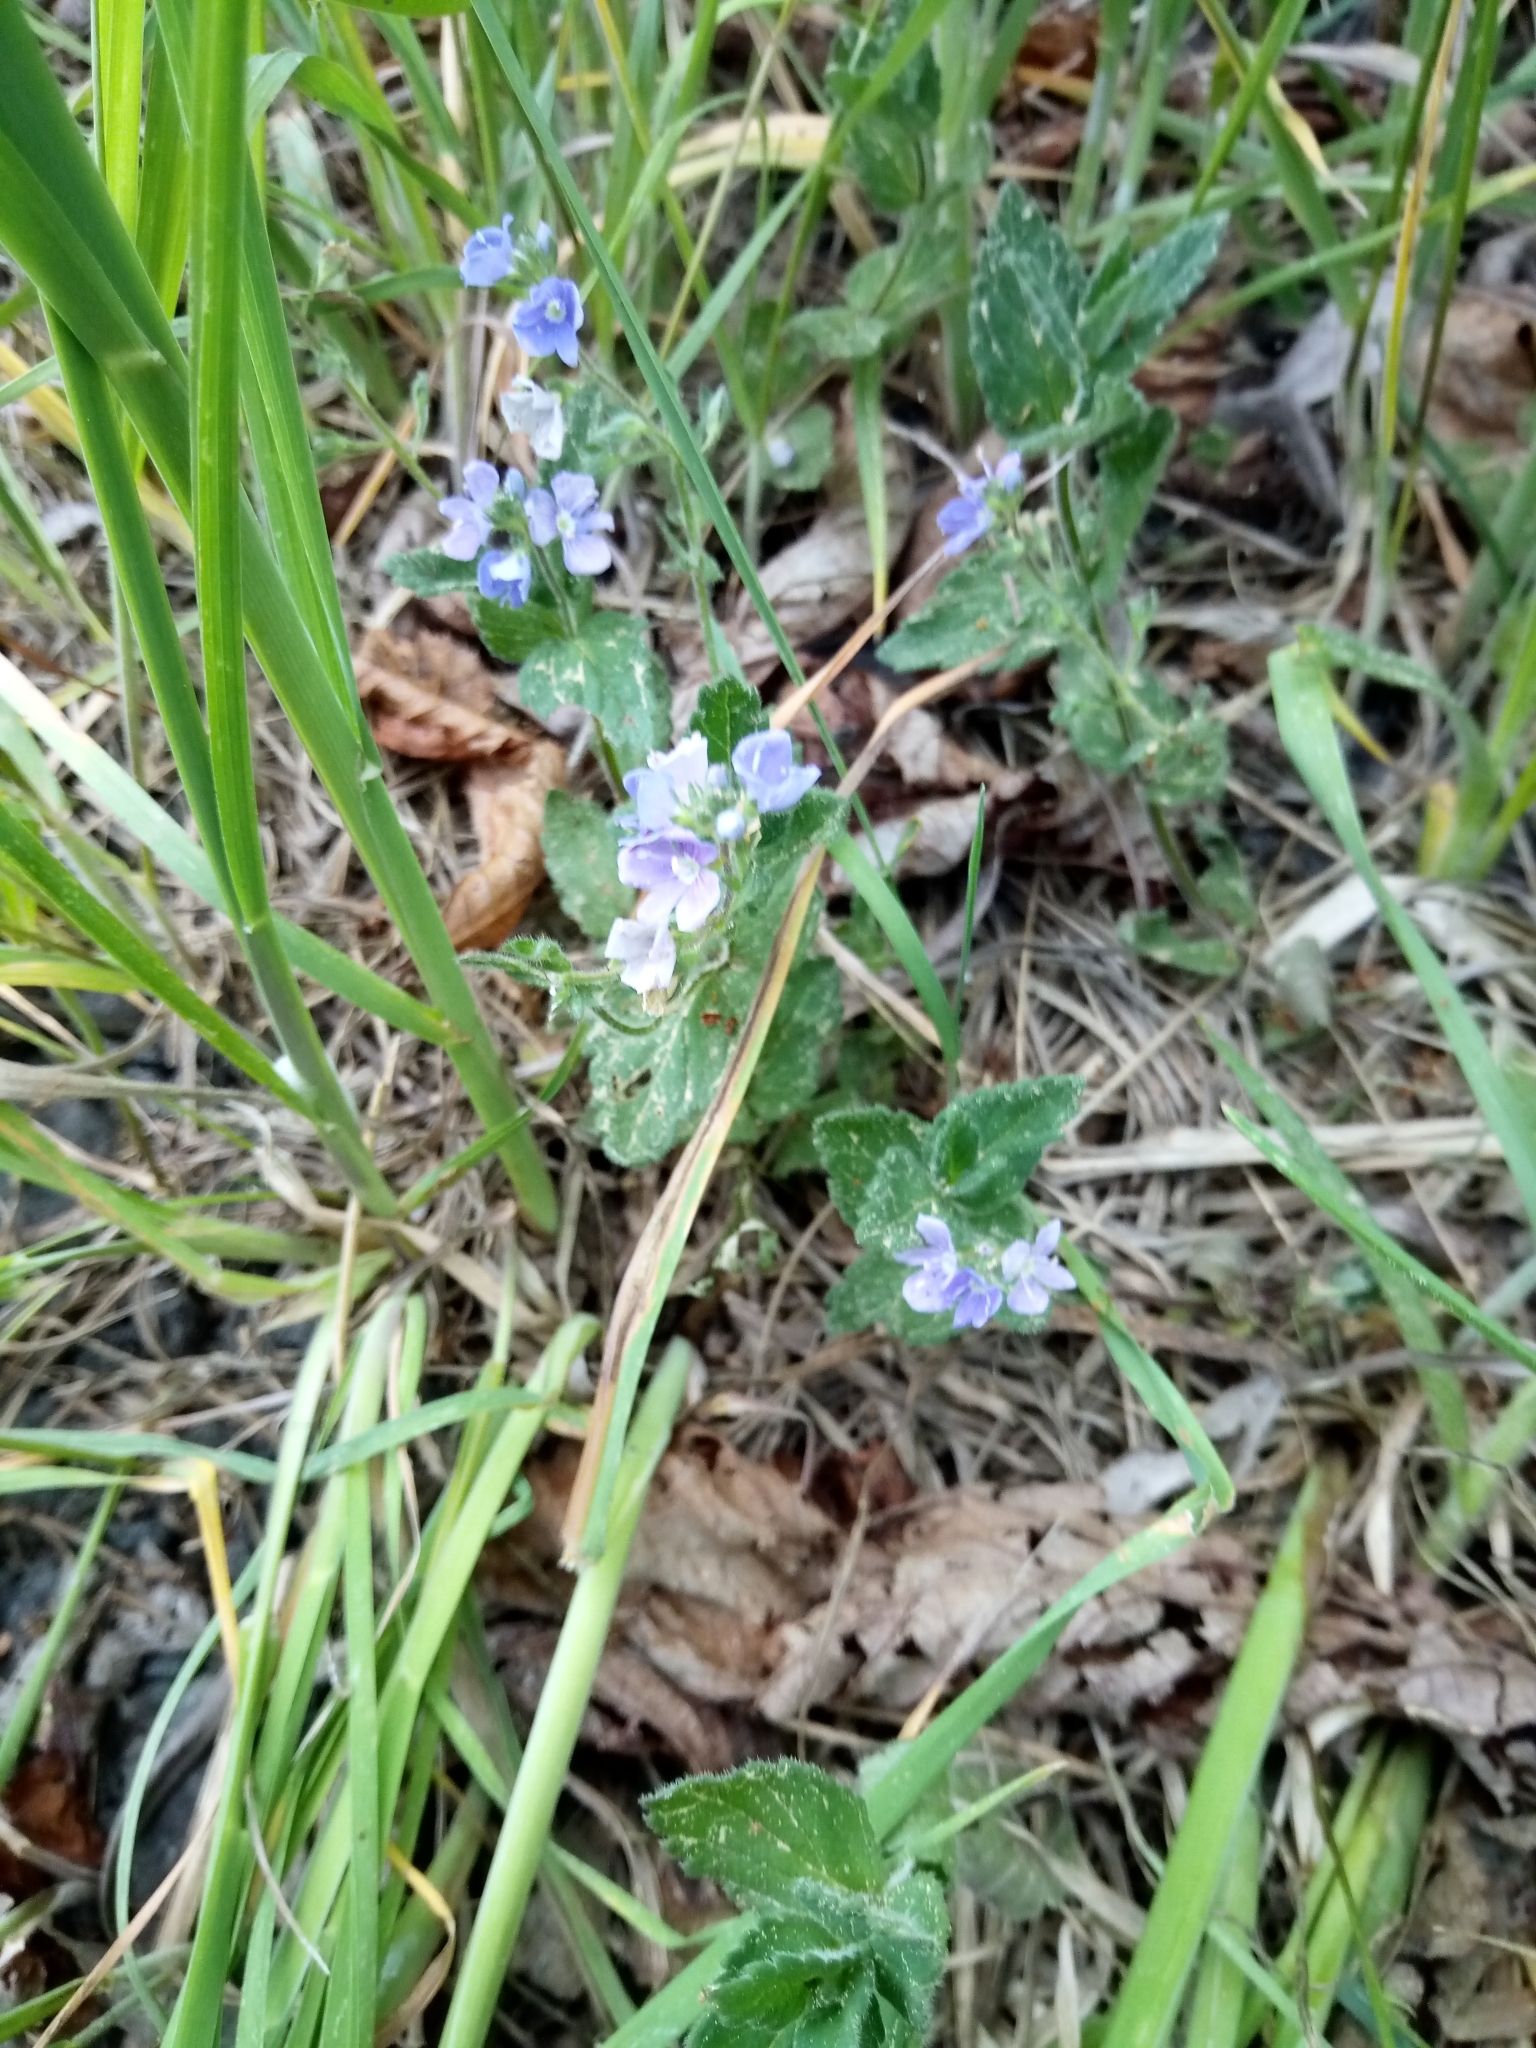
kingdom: Plantae
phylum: Tracheophyta
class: Magnoliopsida
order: Lamiales
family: Plantaginaceae
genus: Veronica
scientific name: Veronica chamaedrys
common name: Germander speedwell
